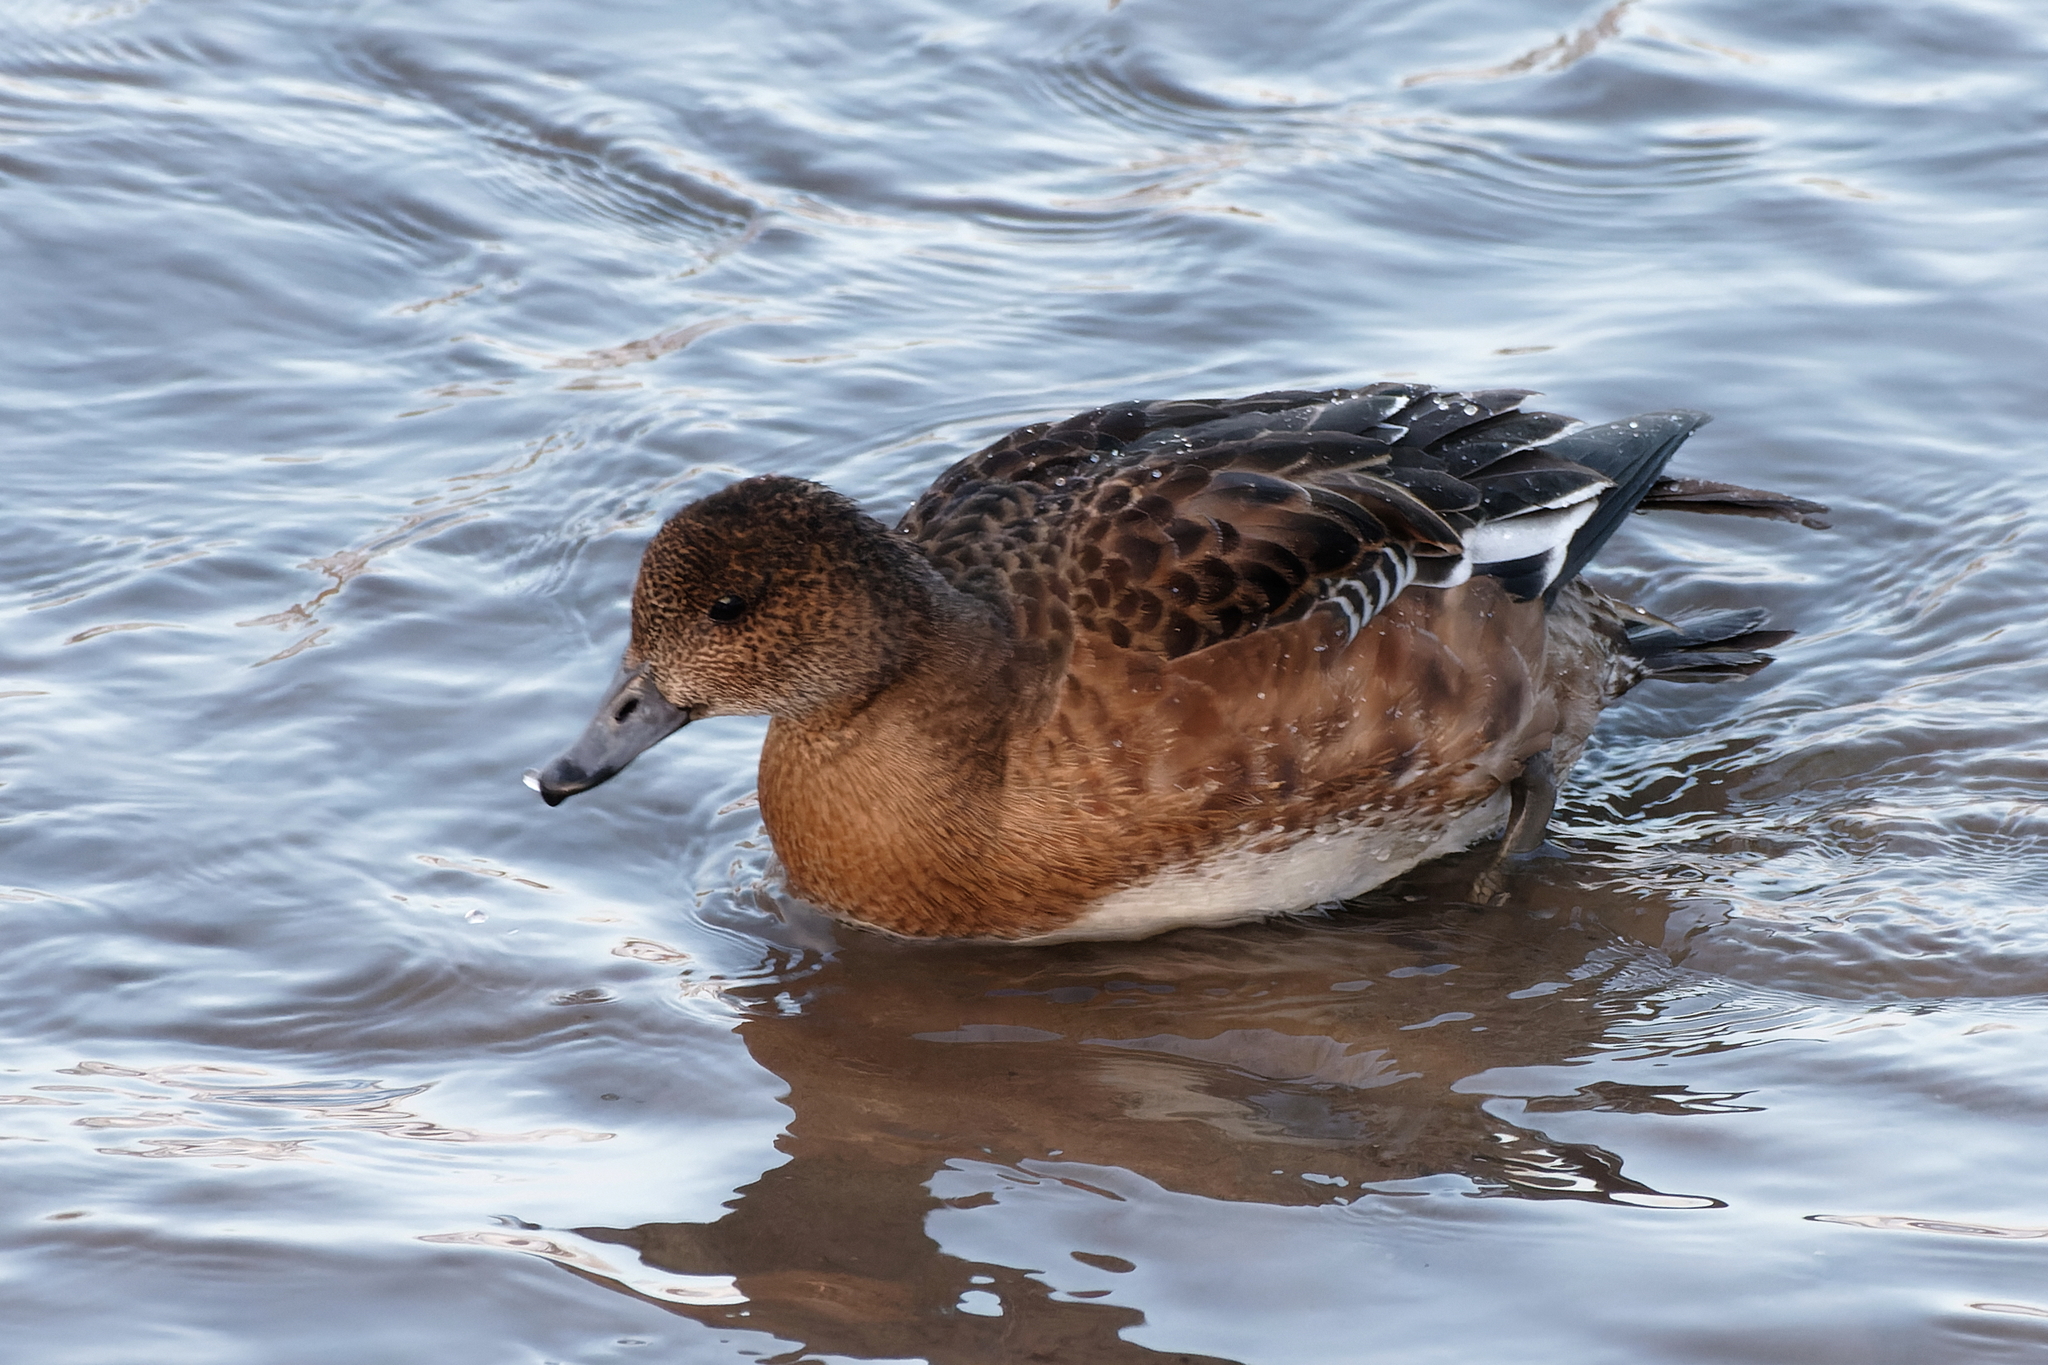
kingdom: Animalia
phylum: Chordata
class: Aves
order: Anseriformes
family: Anatidae
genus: Mareca
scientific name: Mareca penelope
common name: Eurasian wigeon
